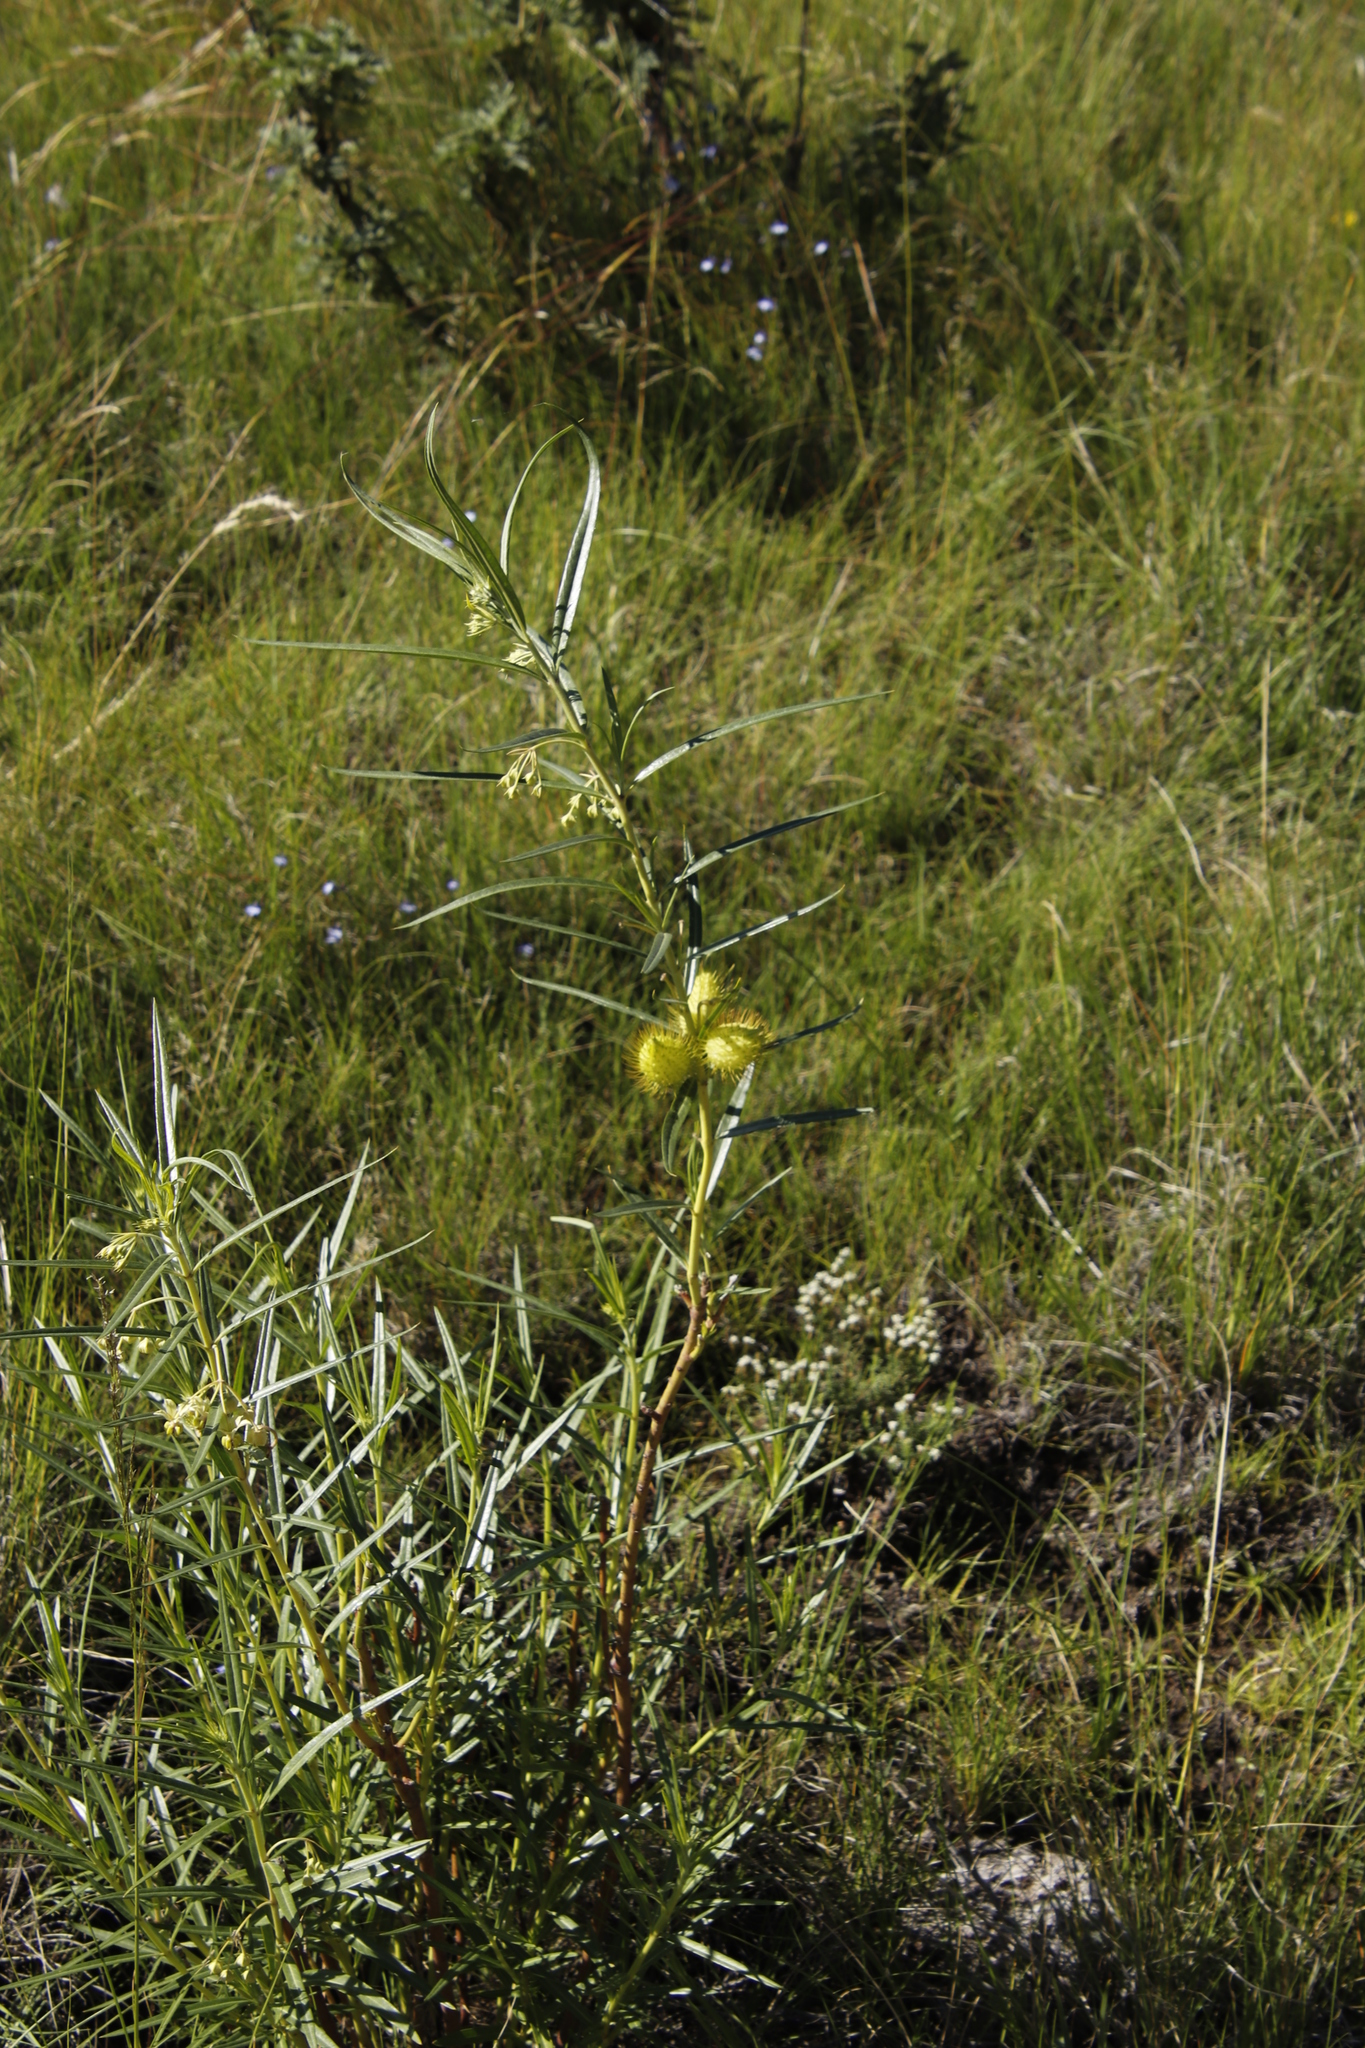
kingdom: Plantae
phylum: Tracheophyta
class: Magnoliopsida
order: Gentianales
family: Apocynaceae
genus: Gomphocarpus
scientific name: Gomphocarpus fruticosus
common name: Milkweed
